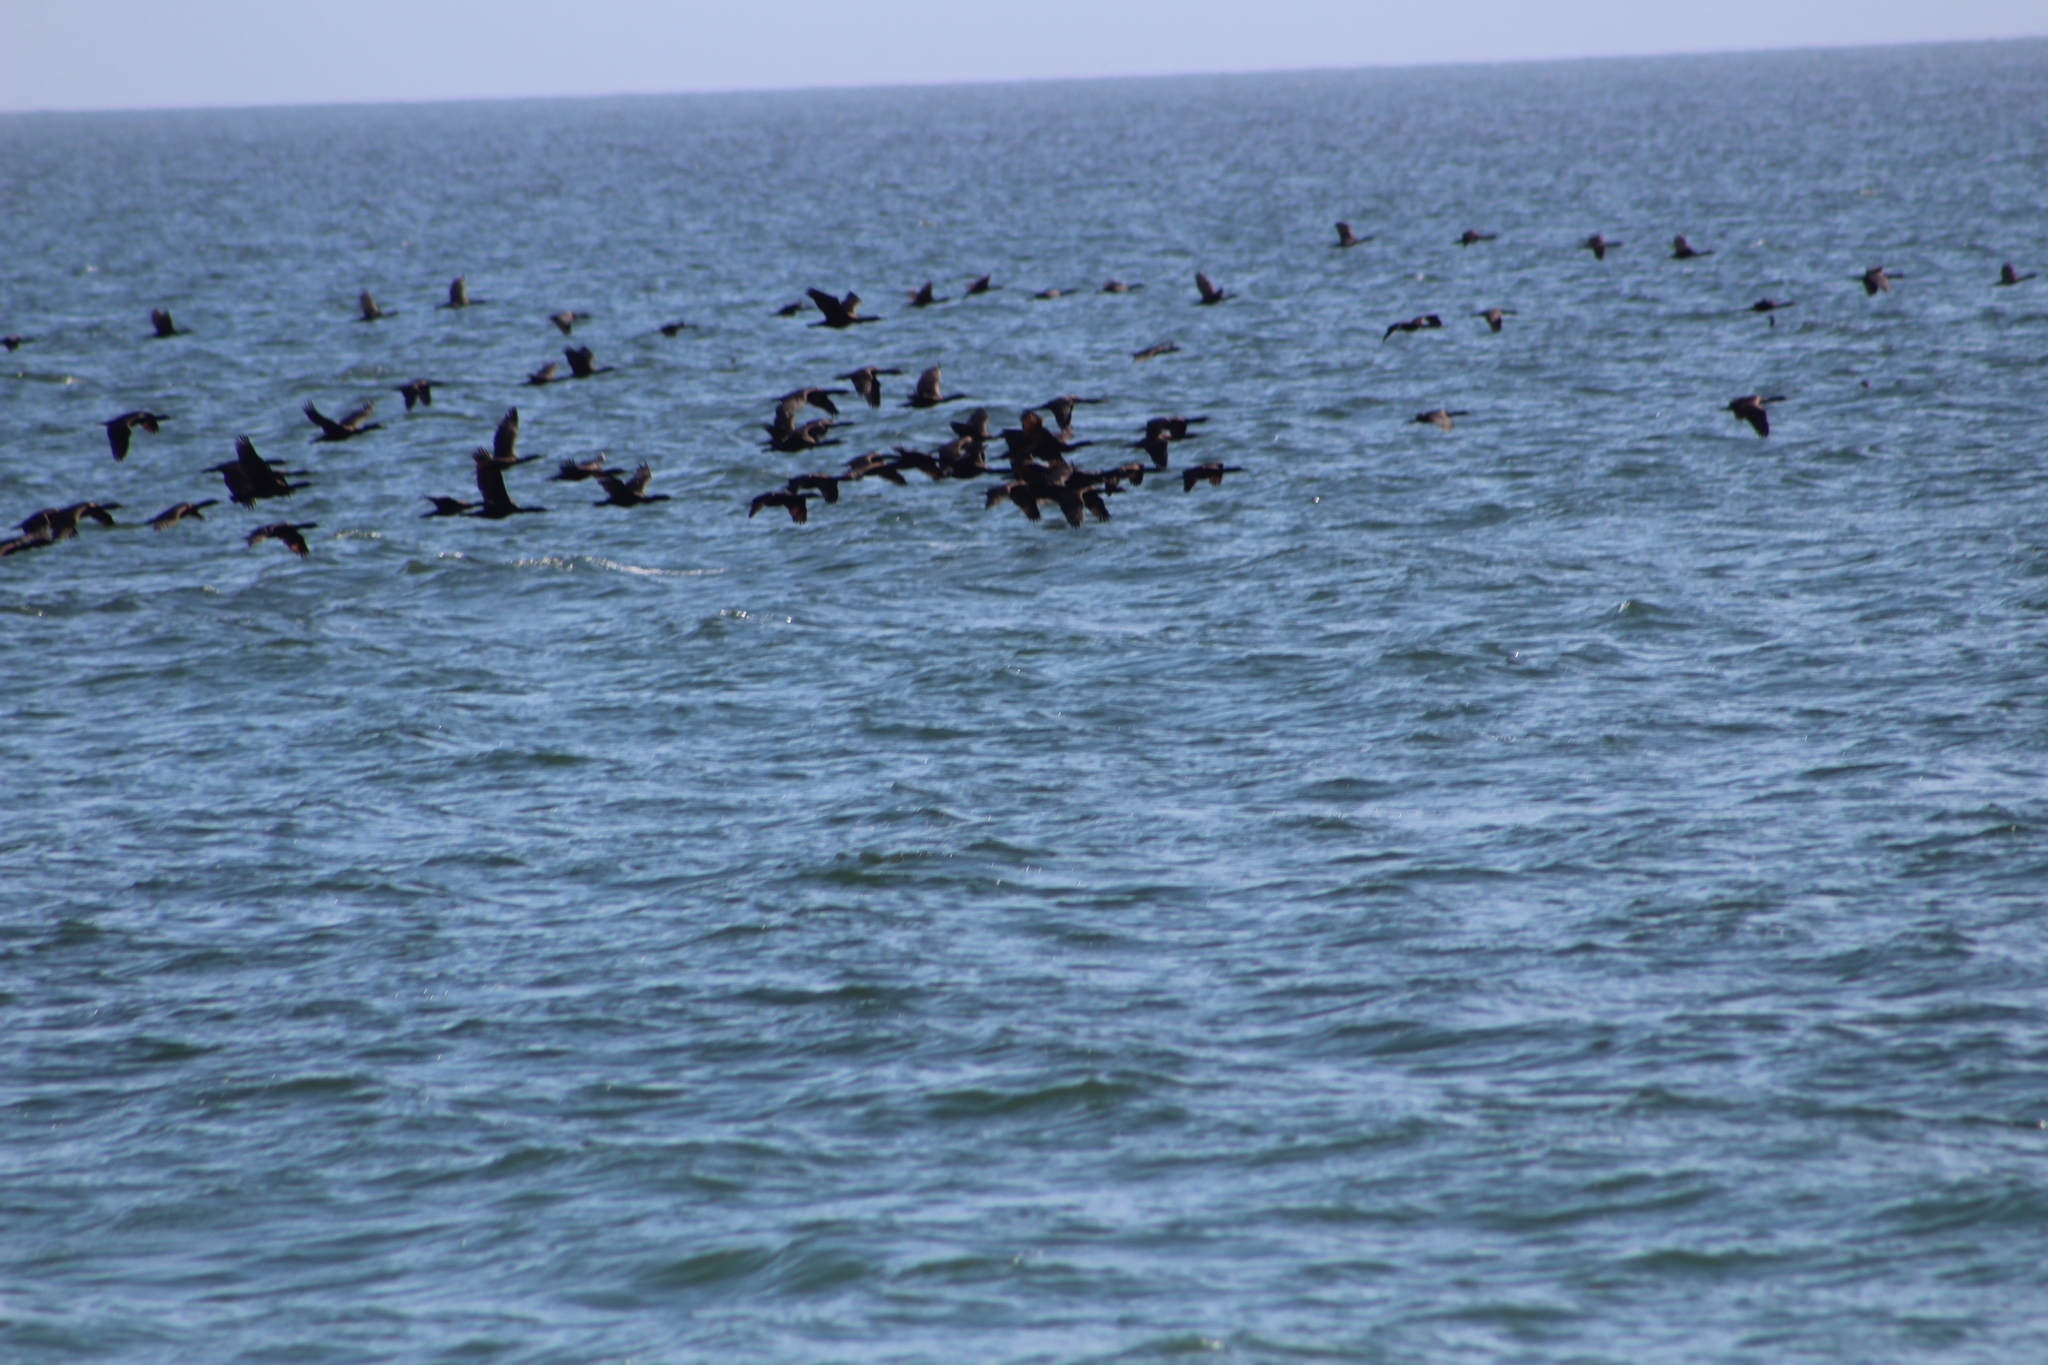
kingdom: Animalia
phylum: Chordata
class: Aves
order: Suliformes
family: Phalacrocoracidae
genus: Urile
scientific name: Urile penicillatus
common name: Brandt's cormorant
